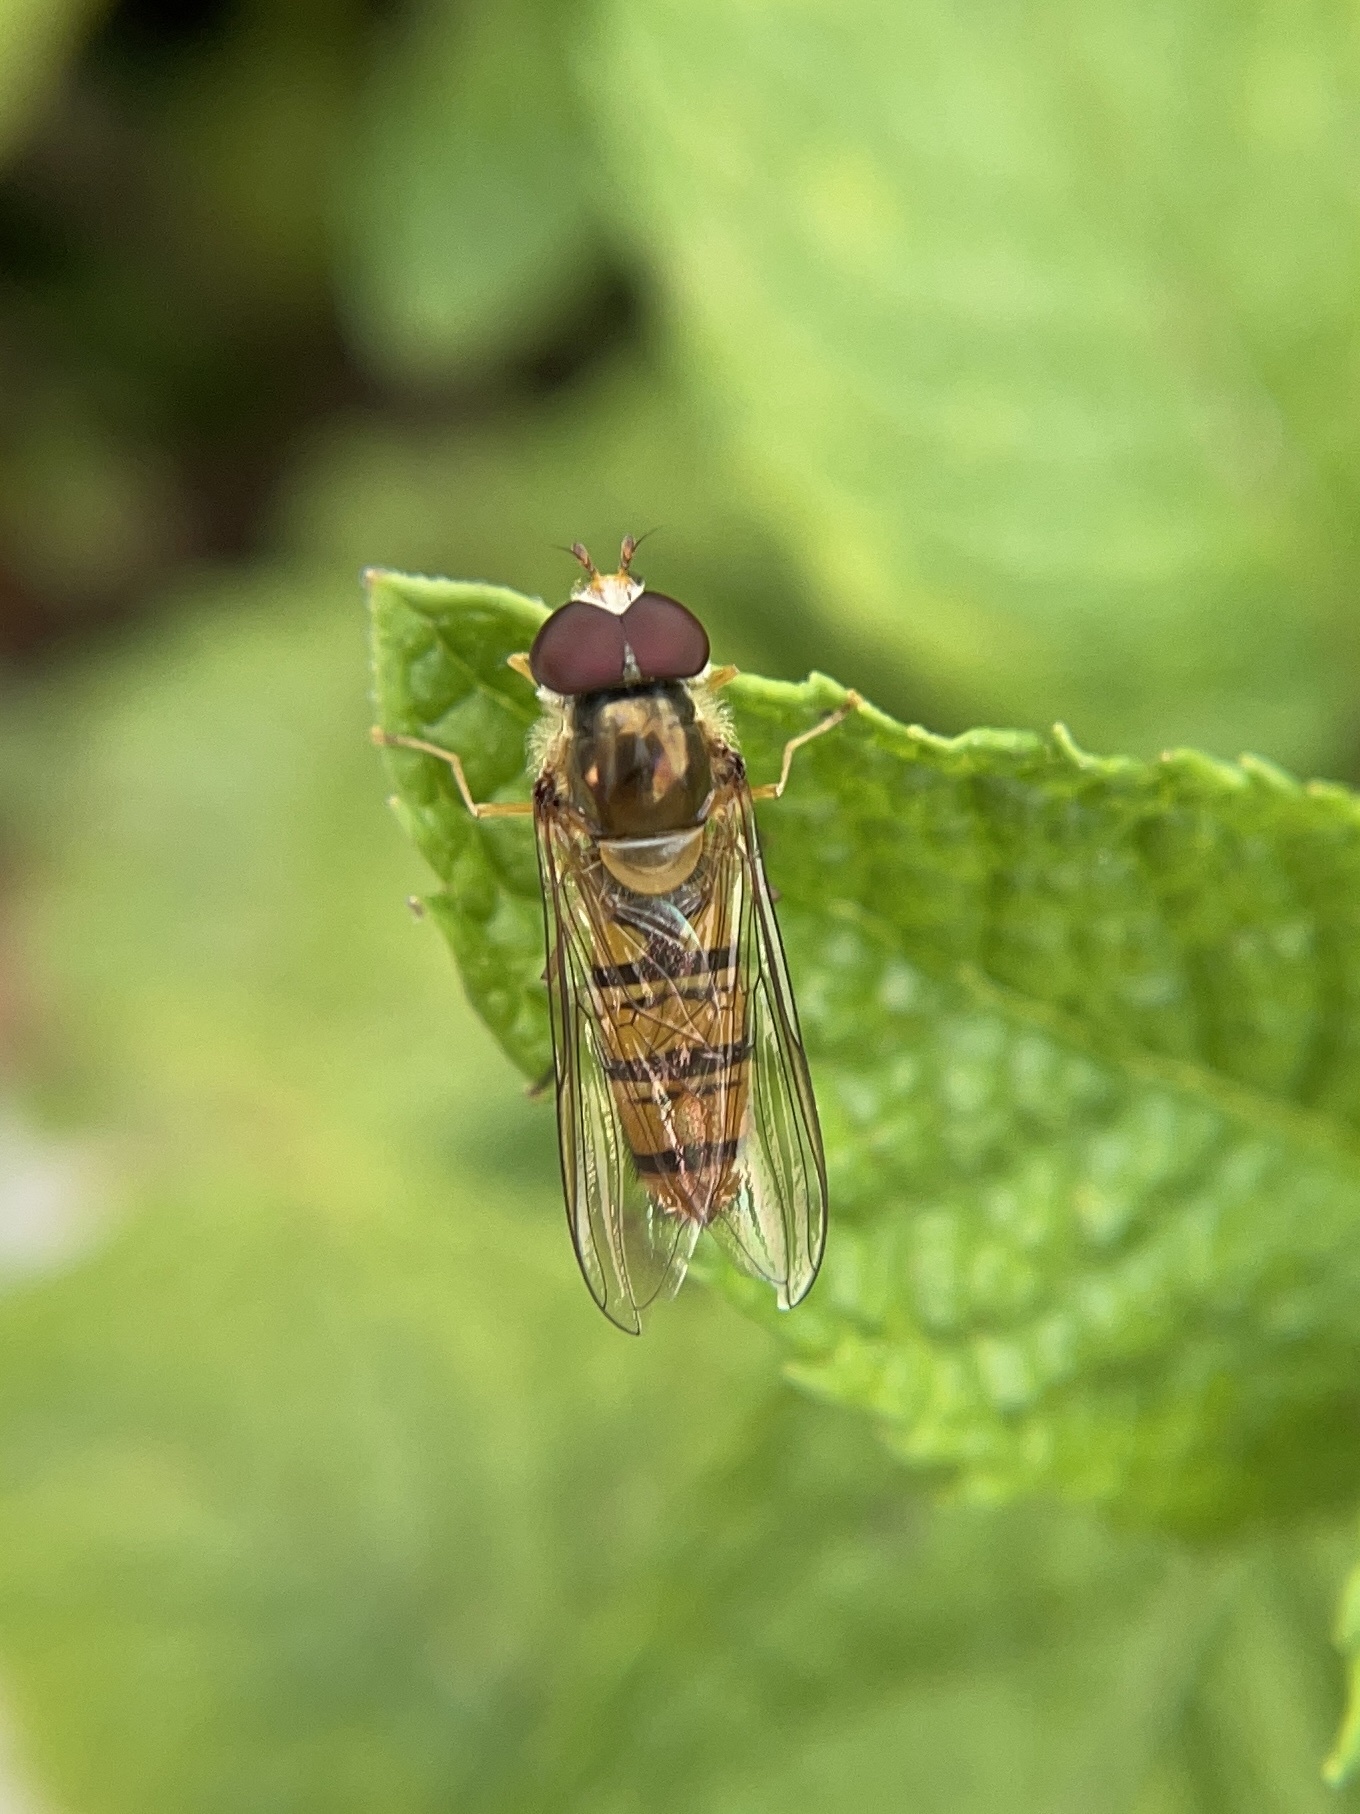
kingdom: Animalia
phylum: Arthropoda
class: Insecta
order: Diptera
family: Syrphidae
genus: Episyrphus
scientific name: Episyrphus balteatus
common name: Marmalade hoverfly
